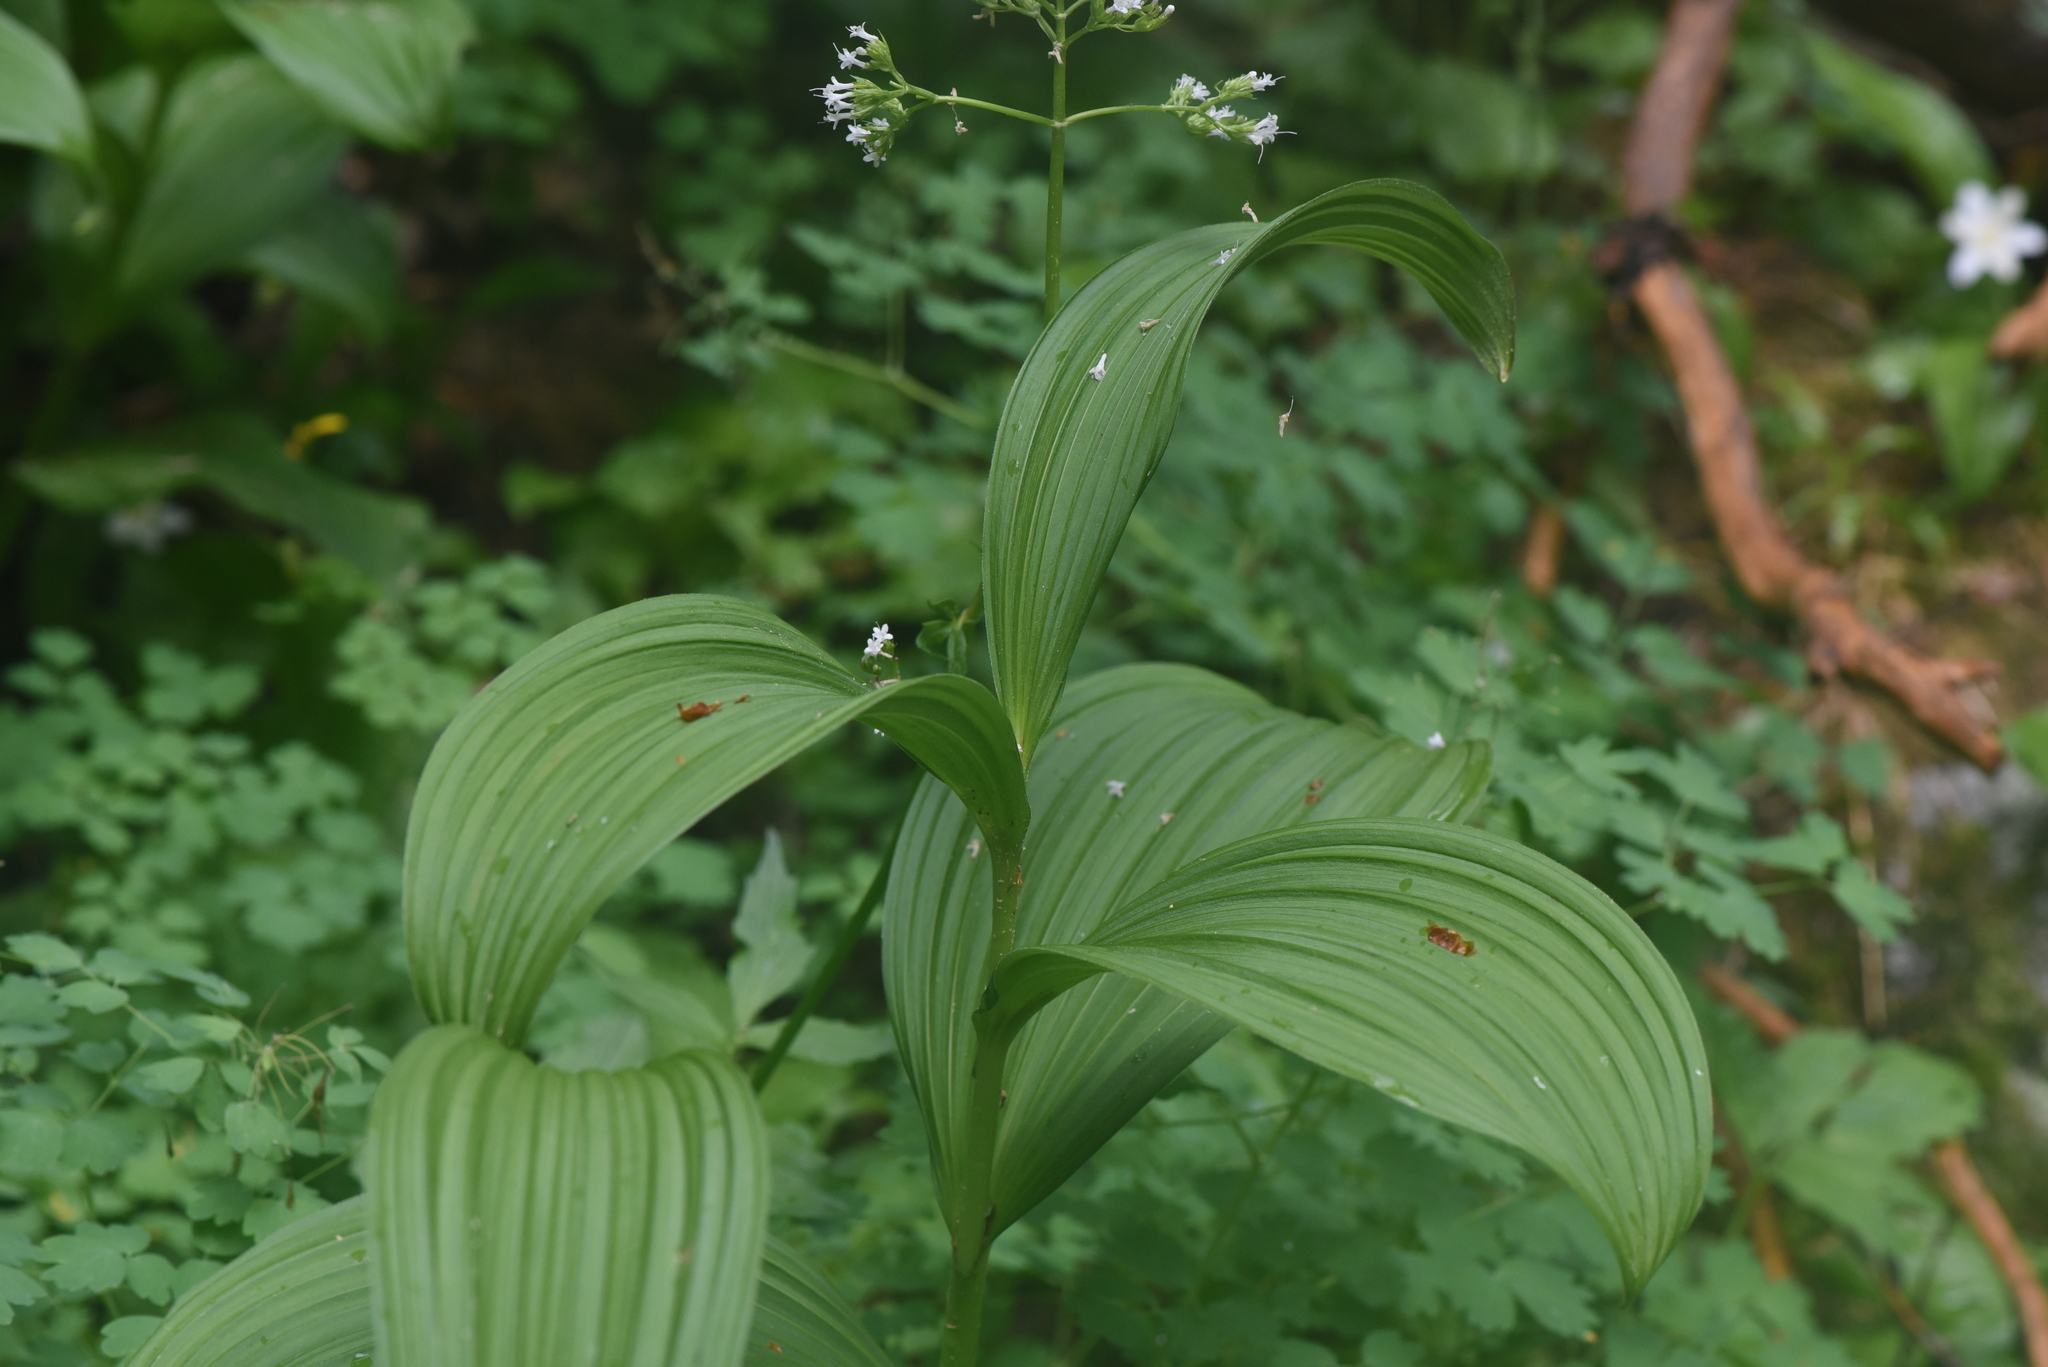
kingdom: Plantae
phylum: Tracheophyta
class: Liliopsida
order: Liliales
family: Melanthiaceae
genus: Veratrum
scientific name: Veratrum viride
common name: American false hellebore
